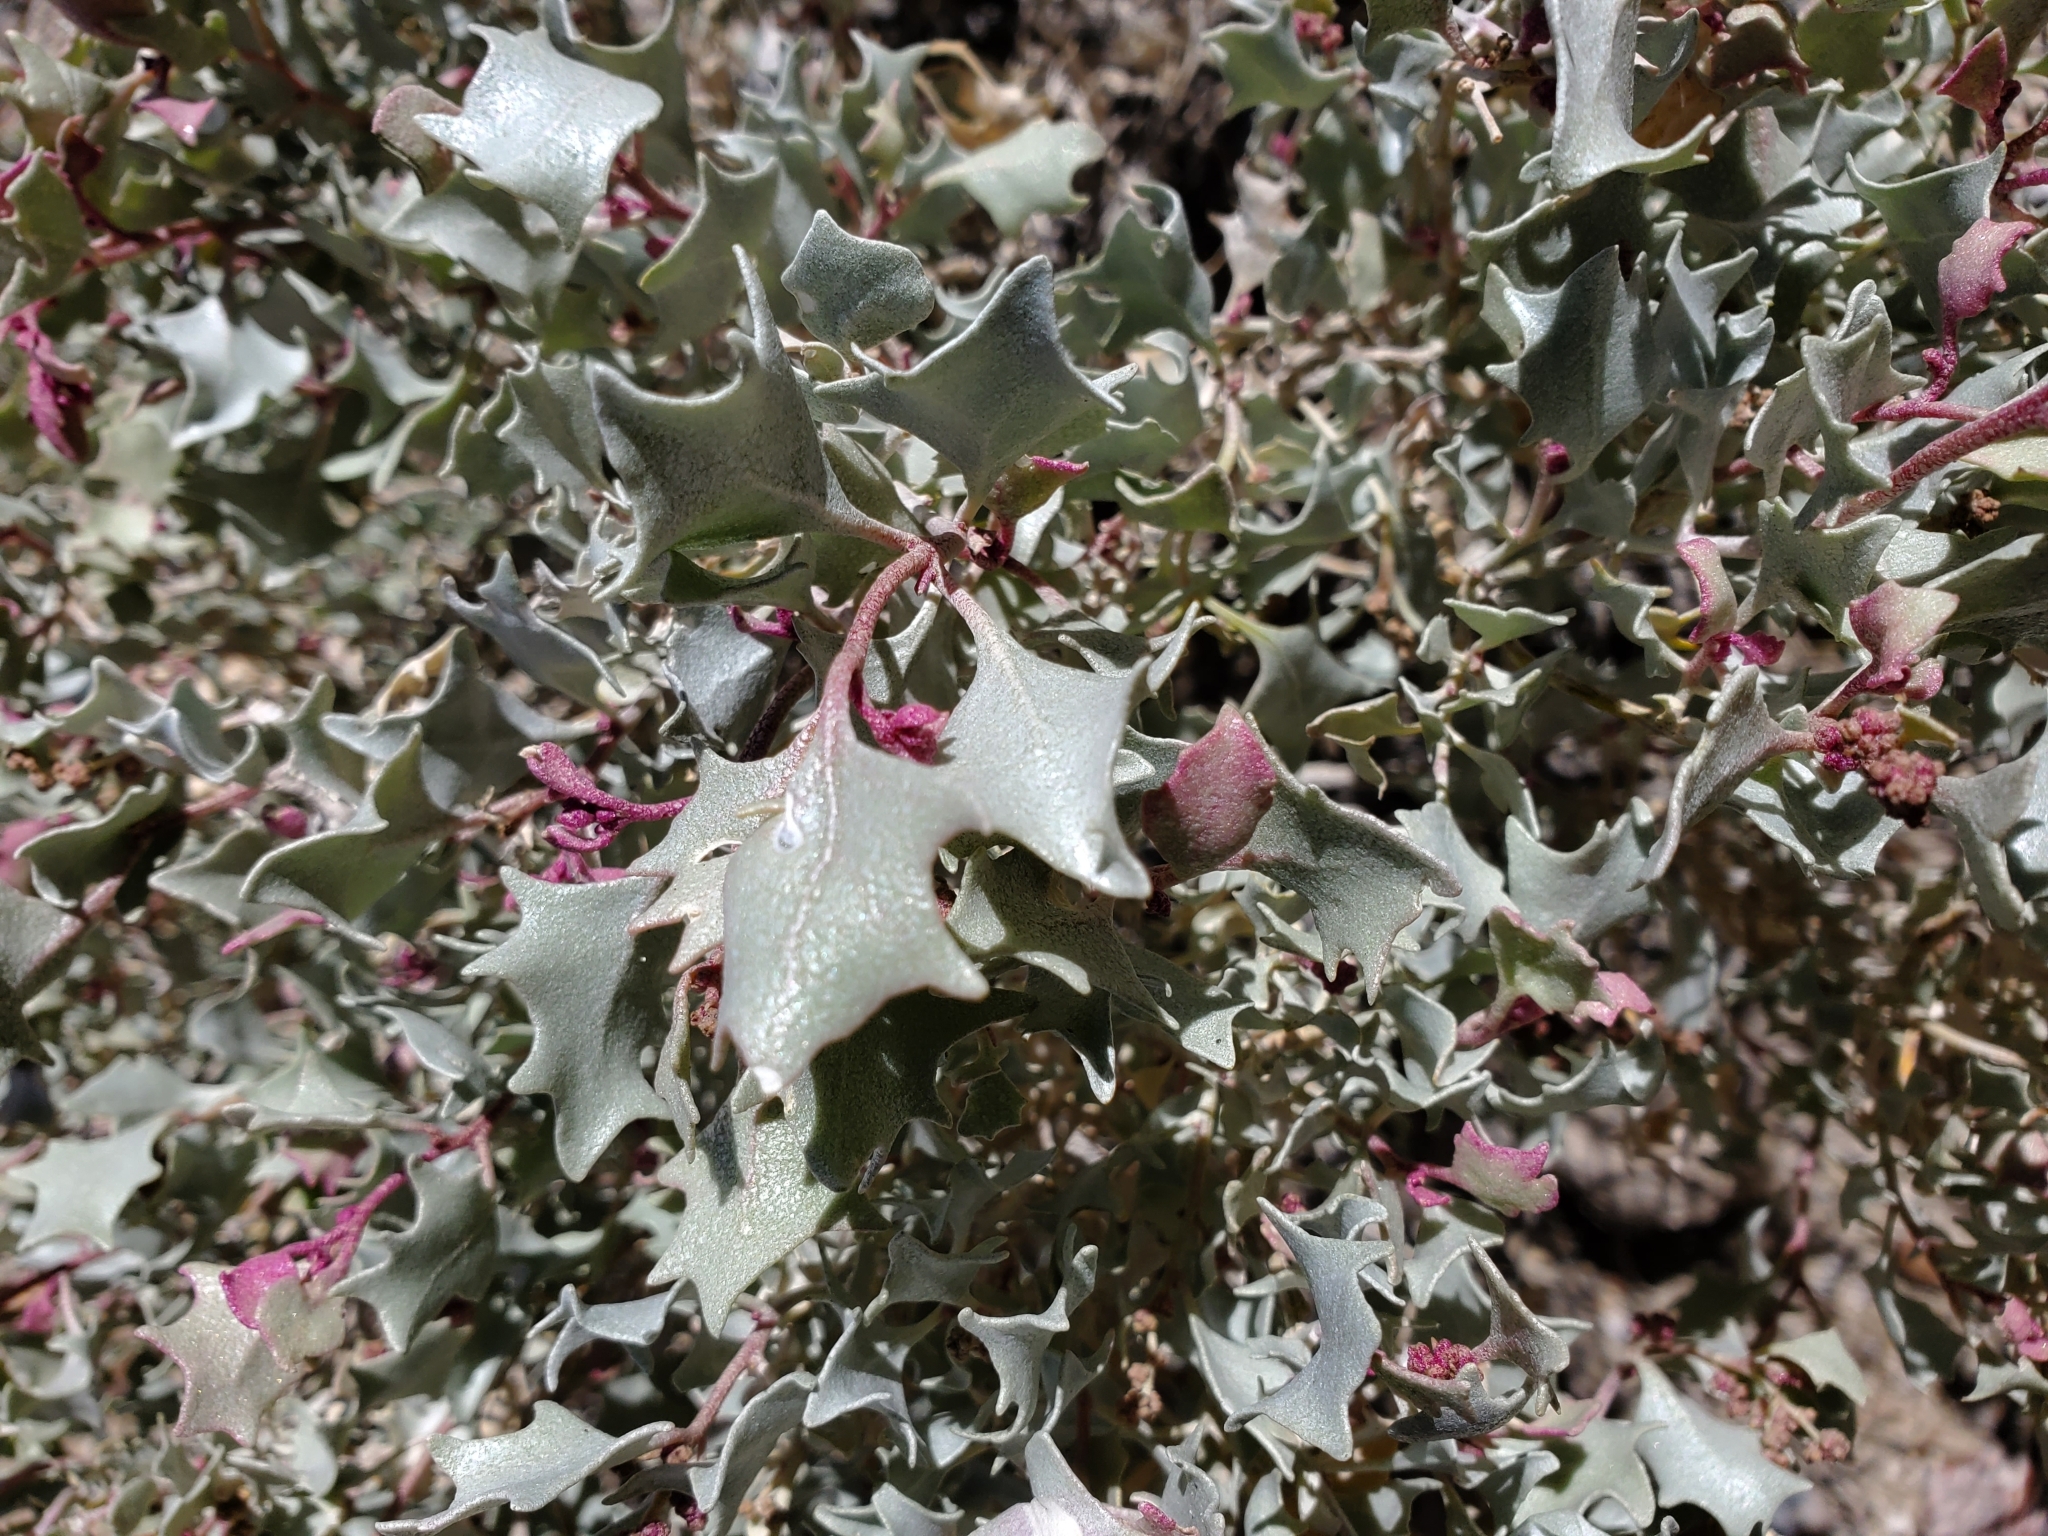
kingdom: Plantae
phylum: Tracheophyta
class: Magnoliopsida
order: Caryophyllales
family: Amaranthaceae
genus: Atriplex
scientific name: Atriplex hymenelytra
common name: Desert-holly
